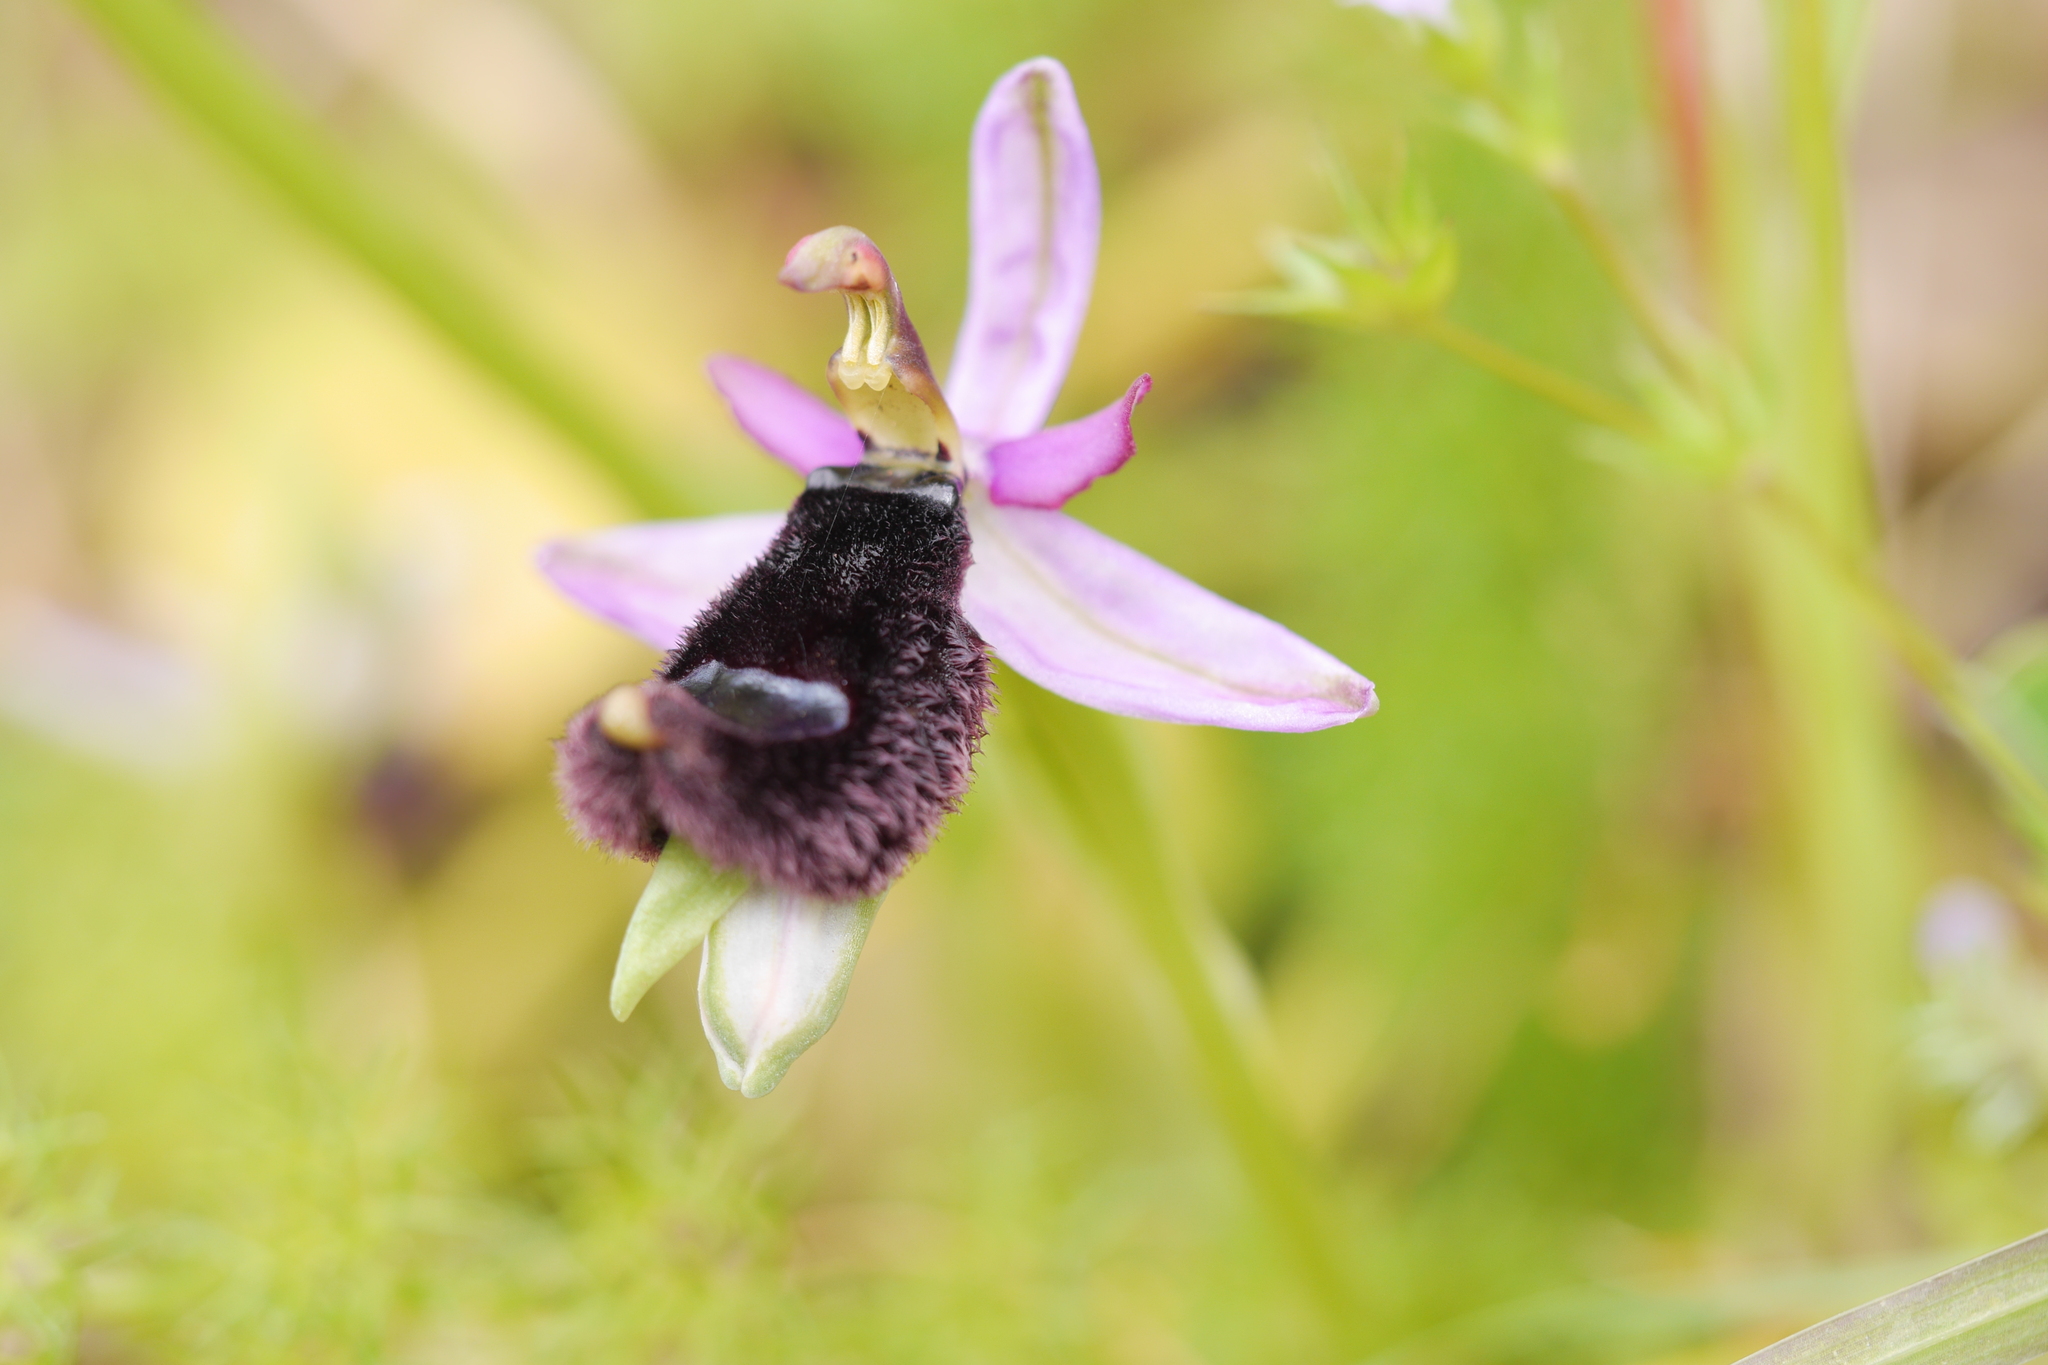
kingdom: Plantae
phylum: Tracheophyta
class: Liliopsida
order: Asparagales
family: Orchidaceae
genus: Ophrys
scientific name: Ophrys bertolonii
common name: Bertoloni's bee orchid
